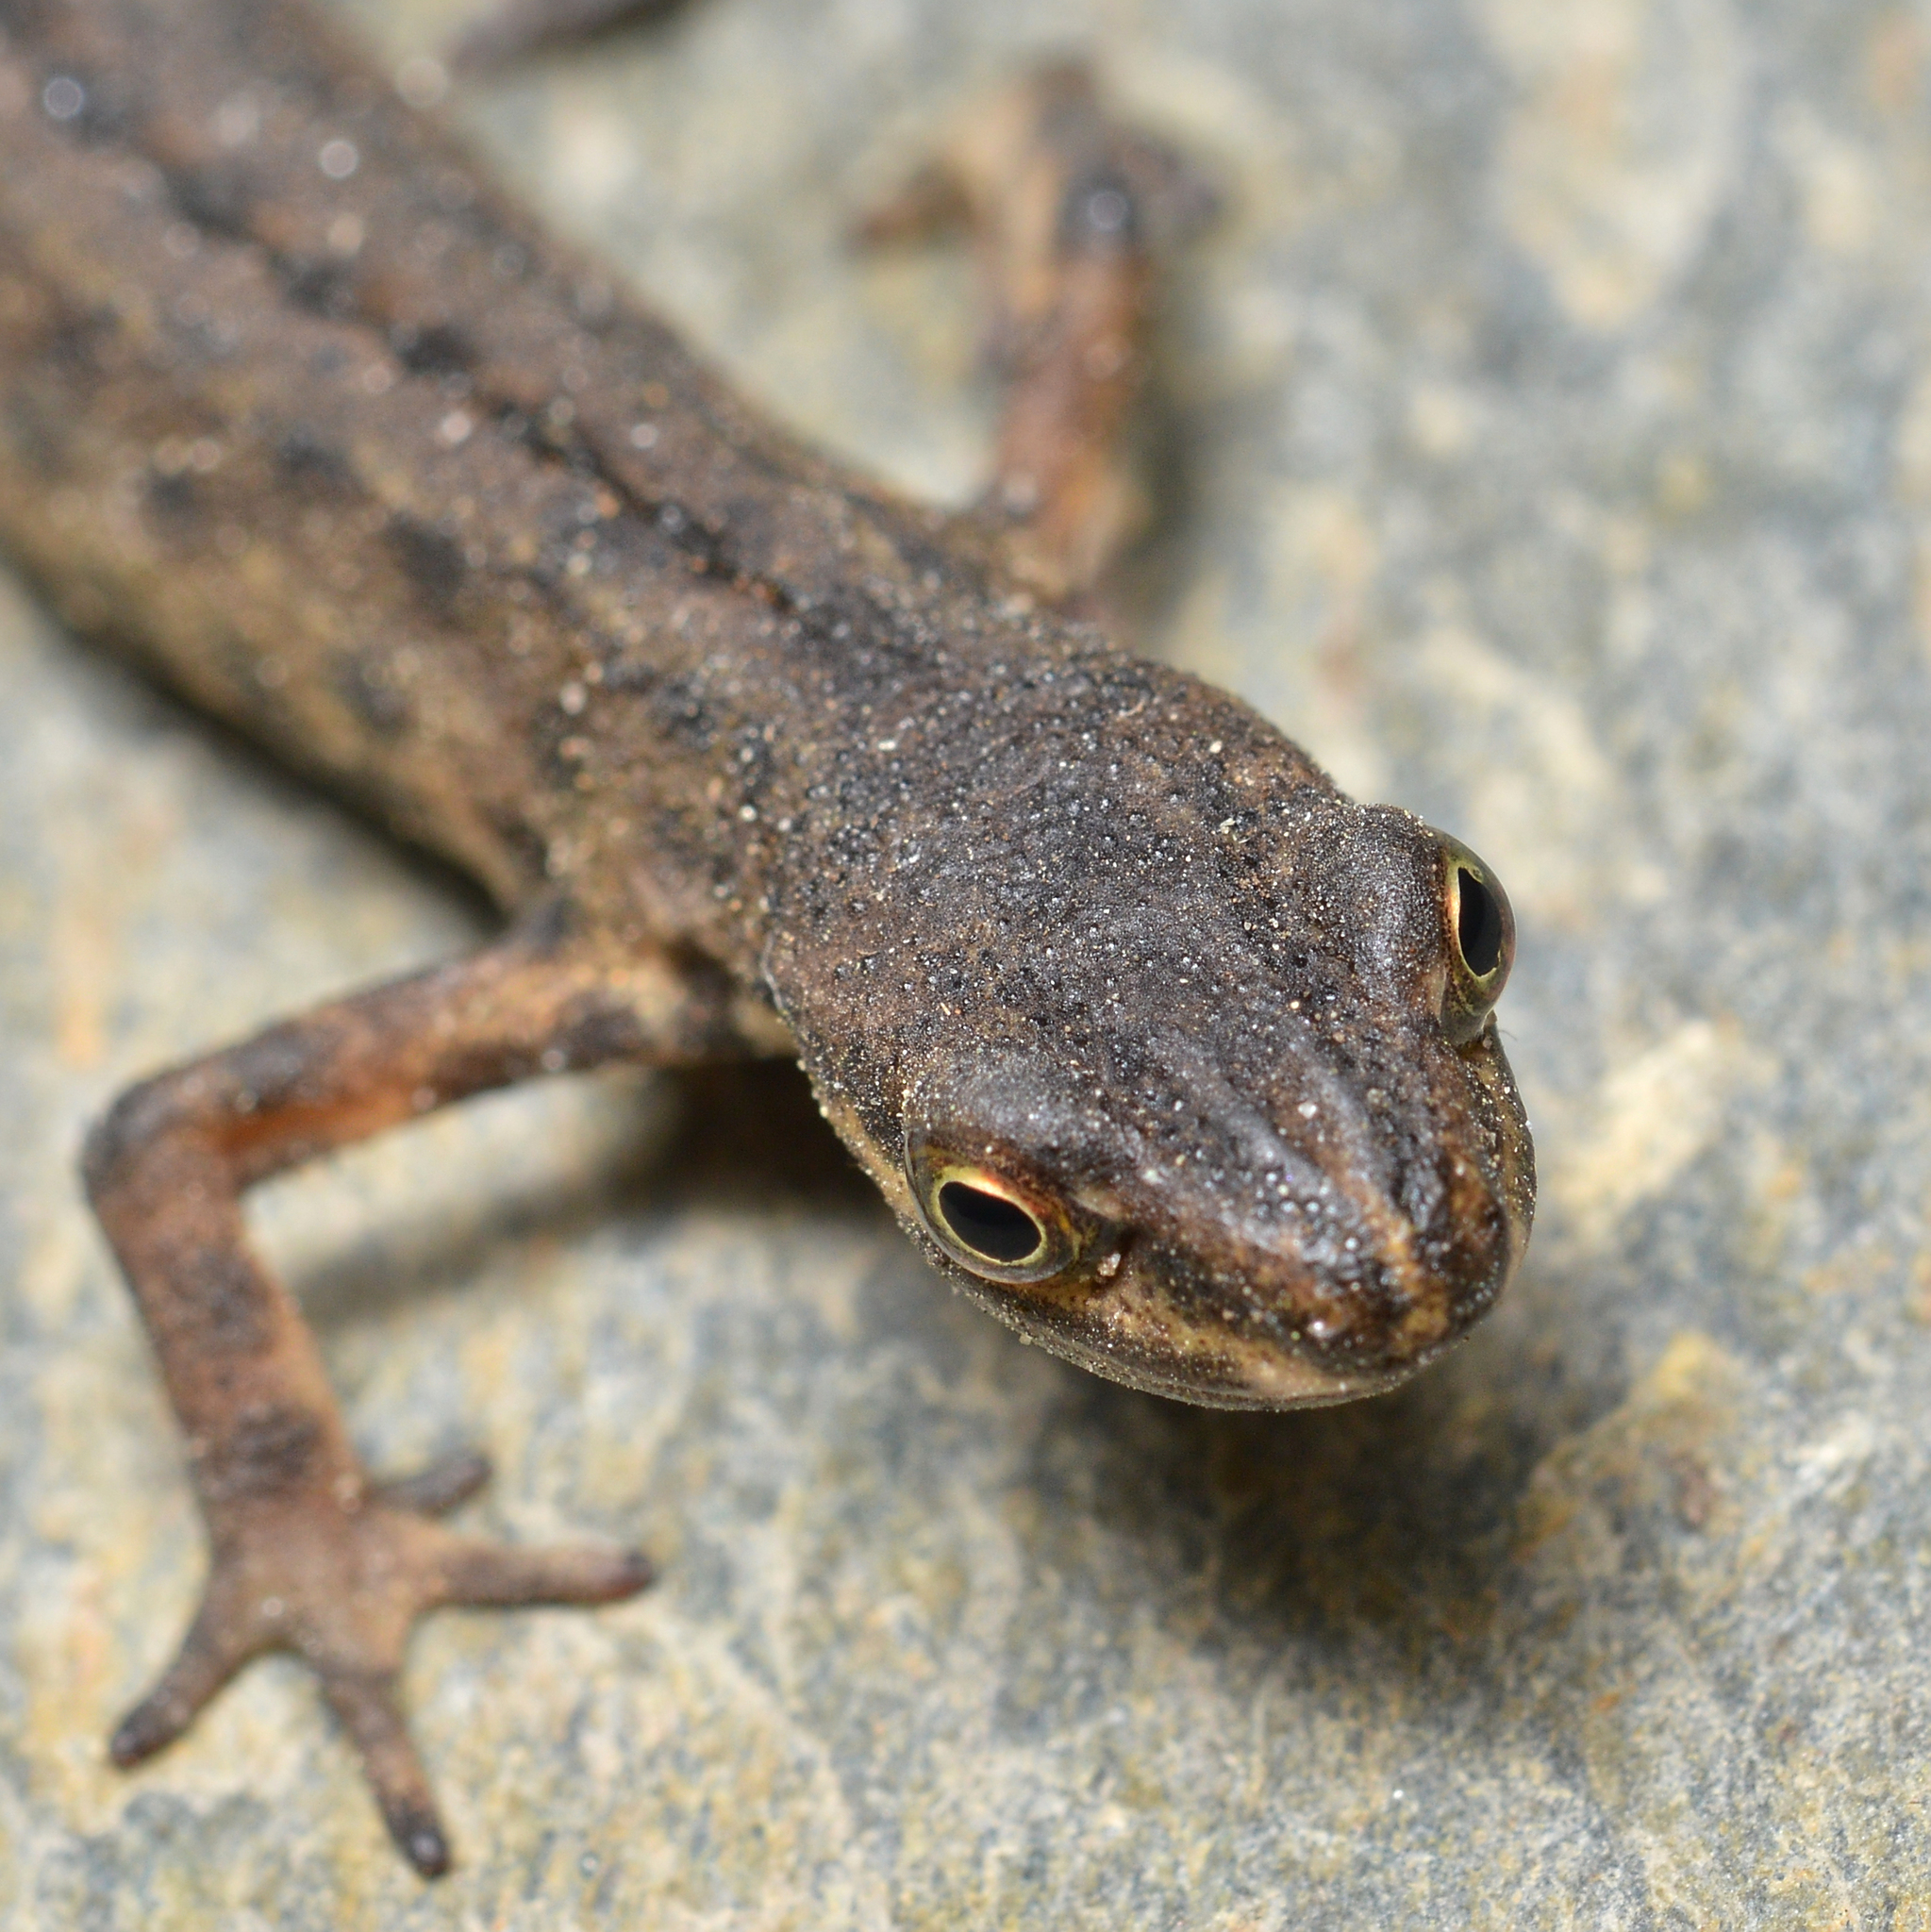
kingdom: Animalia
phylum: Chordata
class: Amphibia
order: Caudata
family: Salamandridae
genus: Lissotriton
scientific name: Lissotriton vulgaris
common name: Smooth newt
